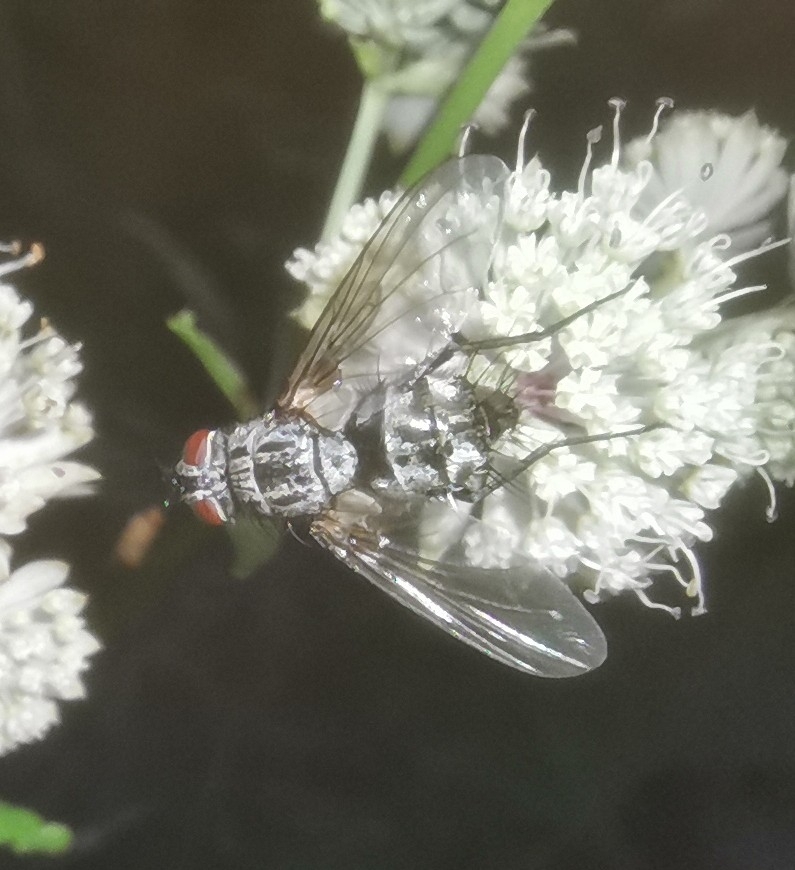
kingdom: Animalia
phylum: Arthropoda
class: Insecta
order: Diptera
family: Tachinidae
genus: Dinera
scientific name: Dinera ferina
